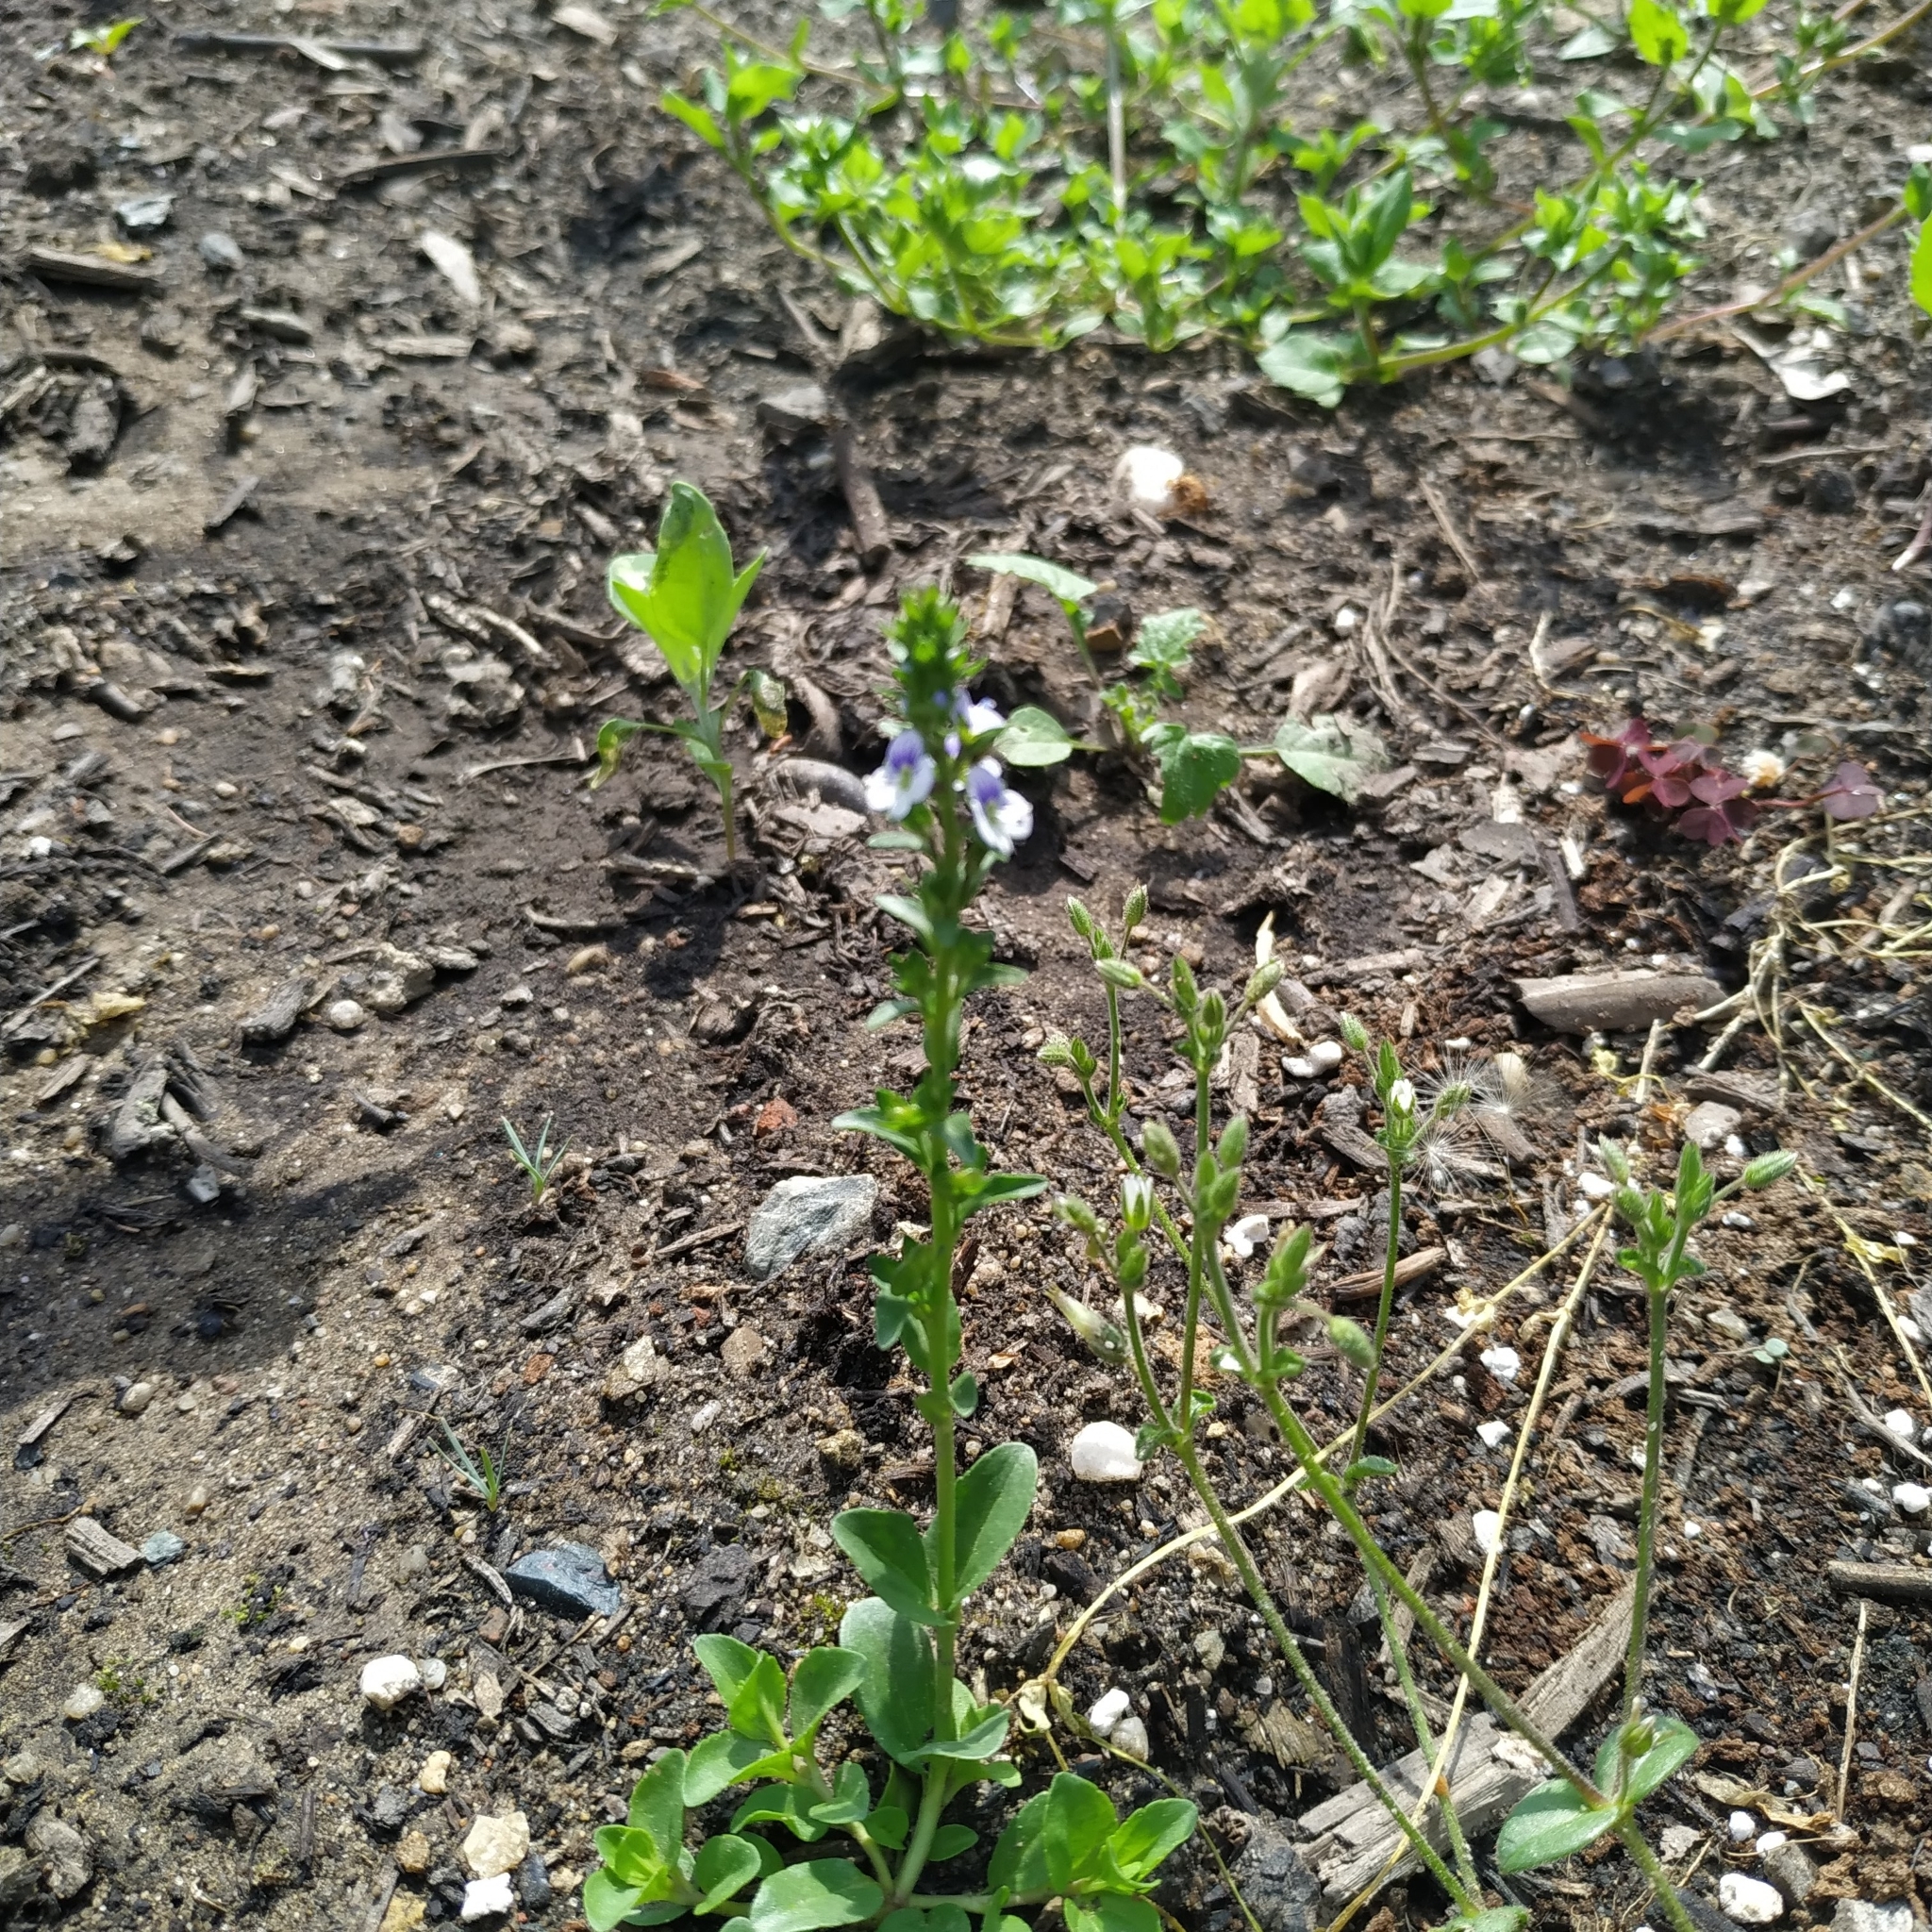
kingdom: Plantae
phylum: Tracheophyta
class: Magnoliopsida
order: Lamiales
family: Plantaginaceae
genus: Veronica
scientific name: Veronica serpyllifolia
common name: Thyme-leaved speedwell
